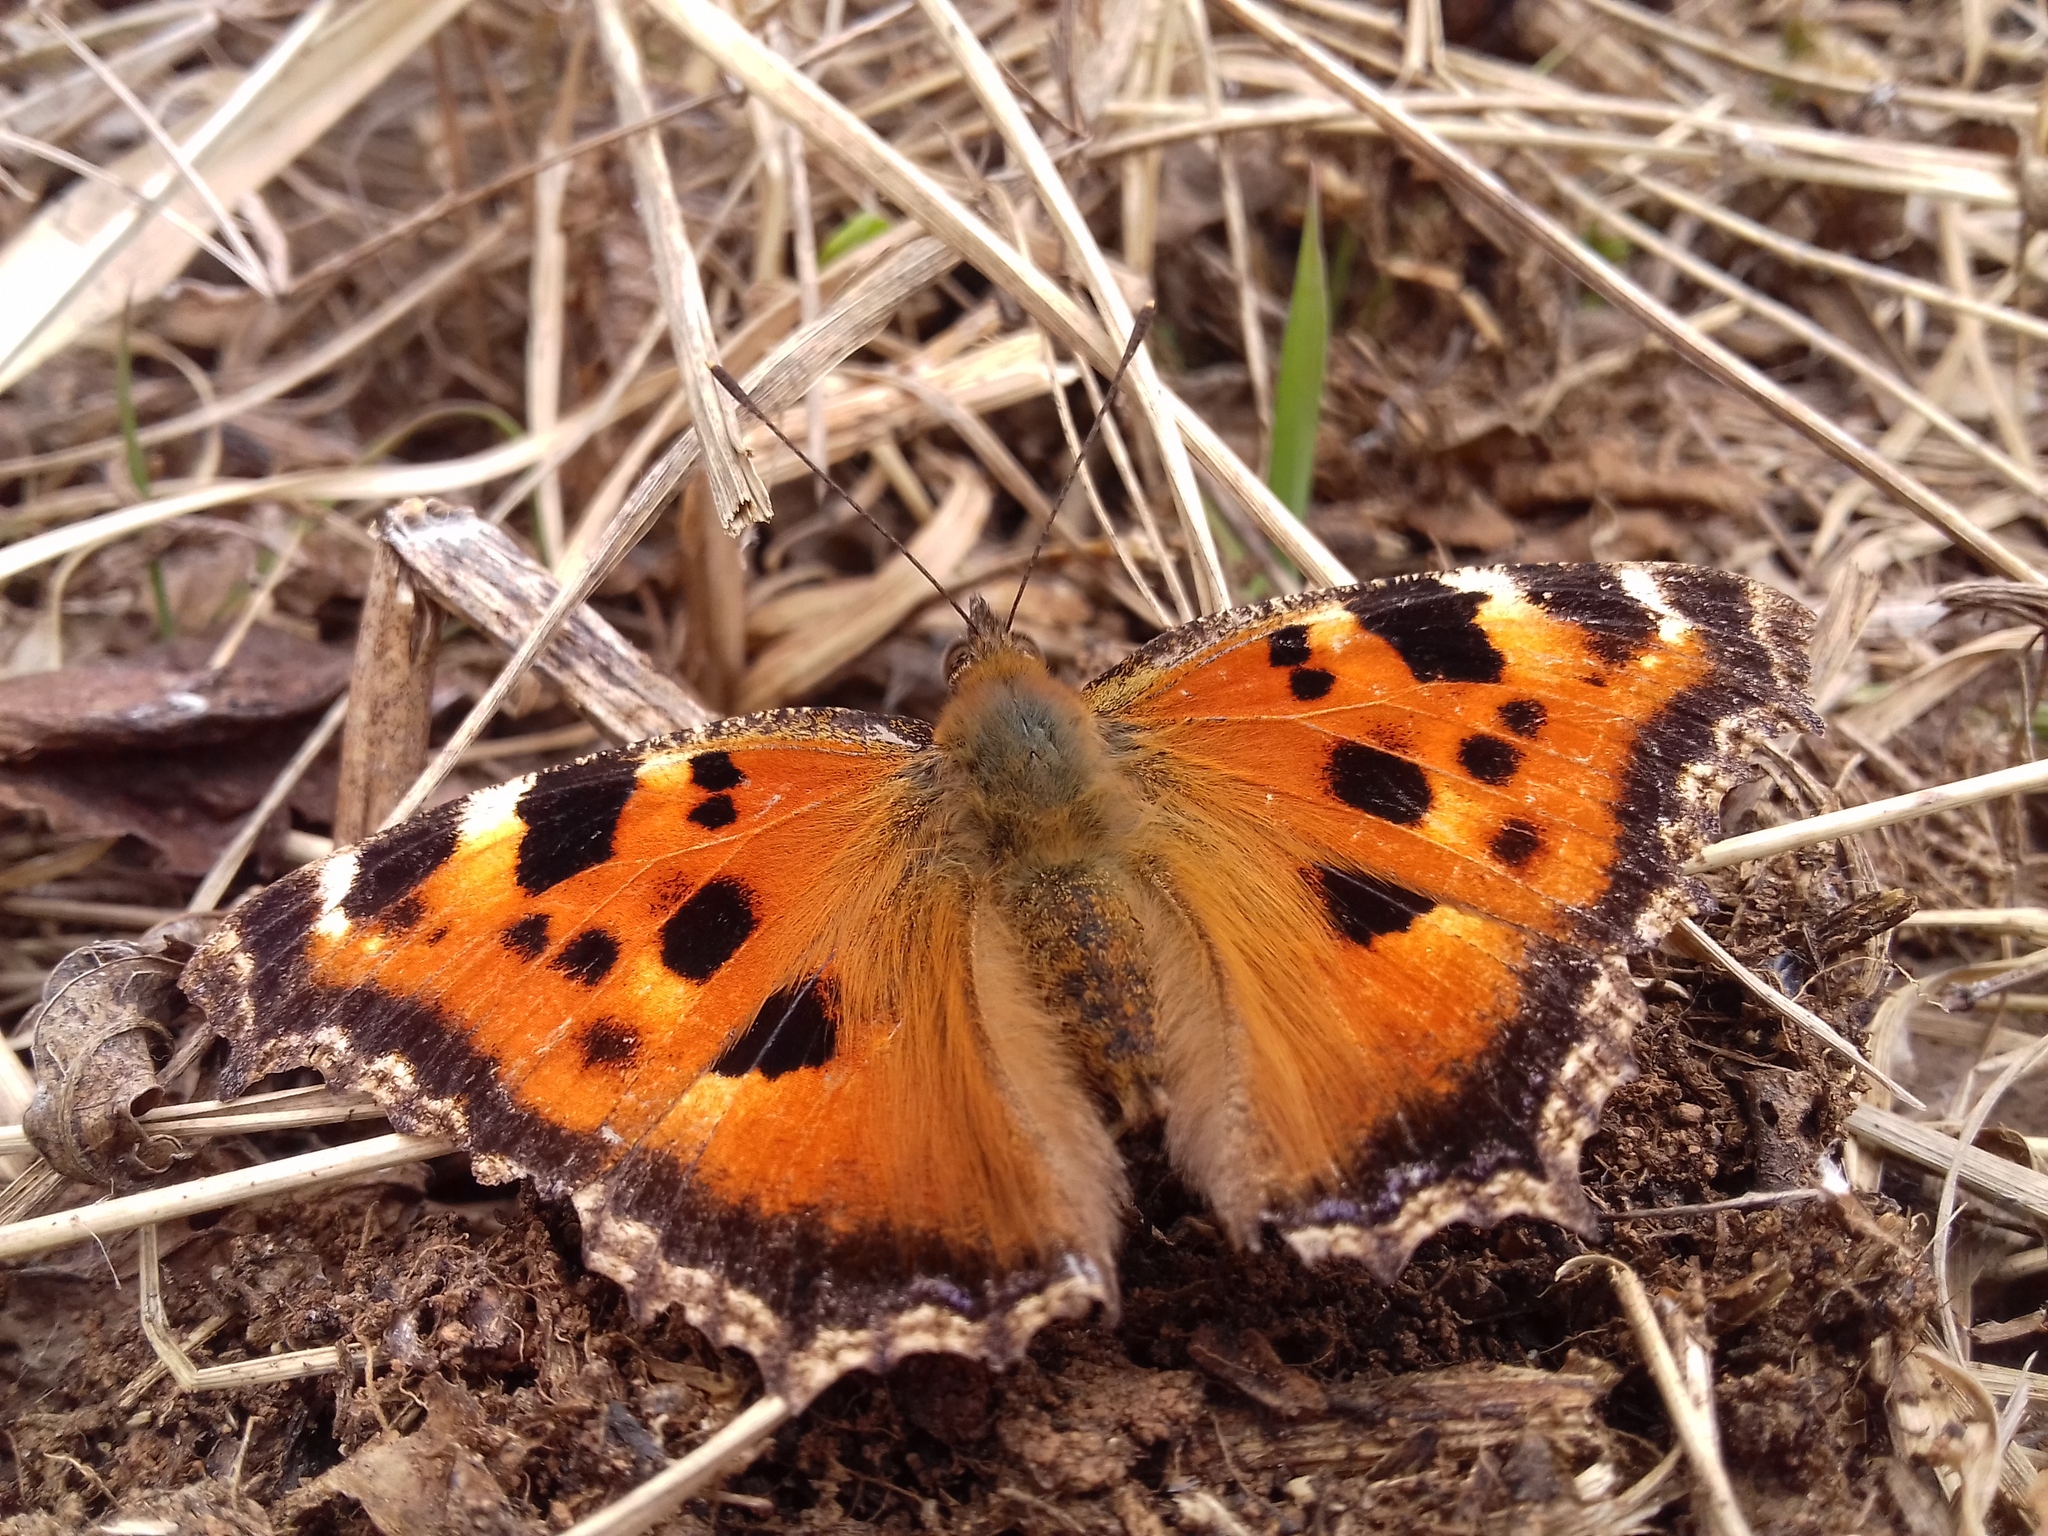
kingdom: Animalia
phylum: Arthropoda
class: Insecta
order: Lepidoptera
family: Nymphalidae
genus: Nymphalis
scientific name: Nymphalis xanthomelas
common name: Scarce tortoiseshell
